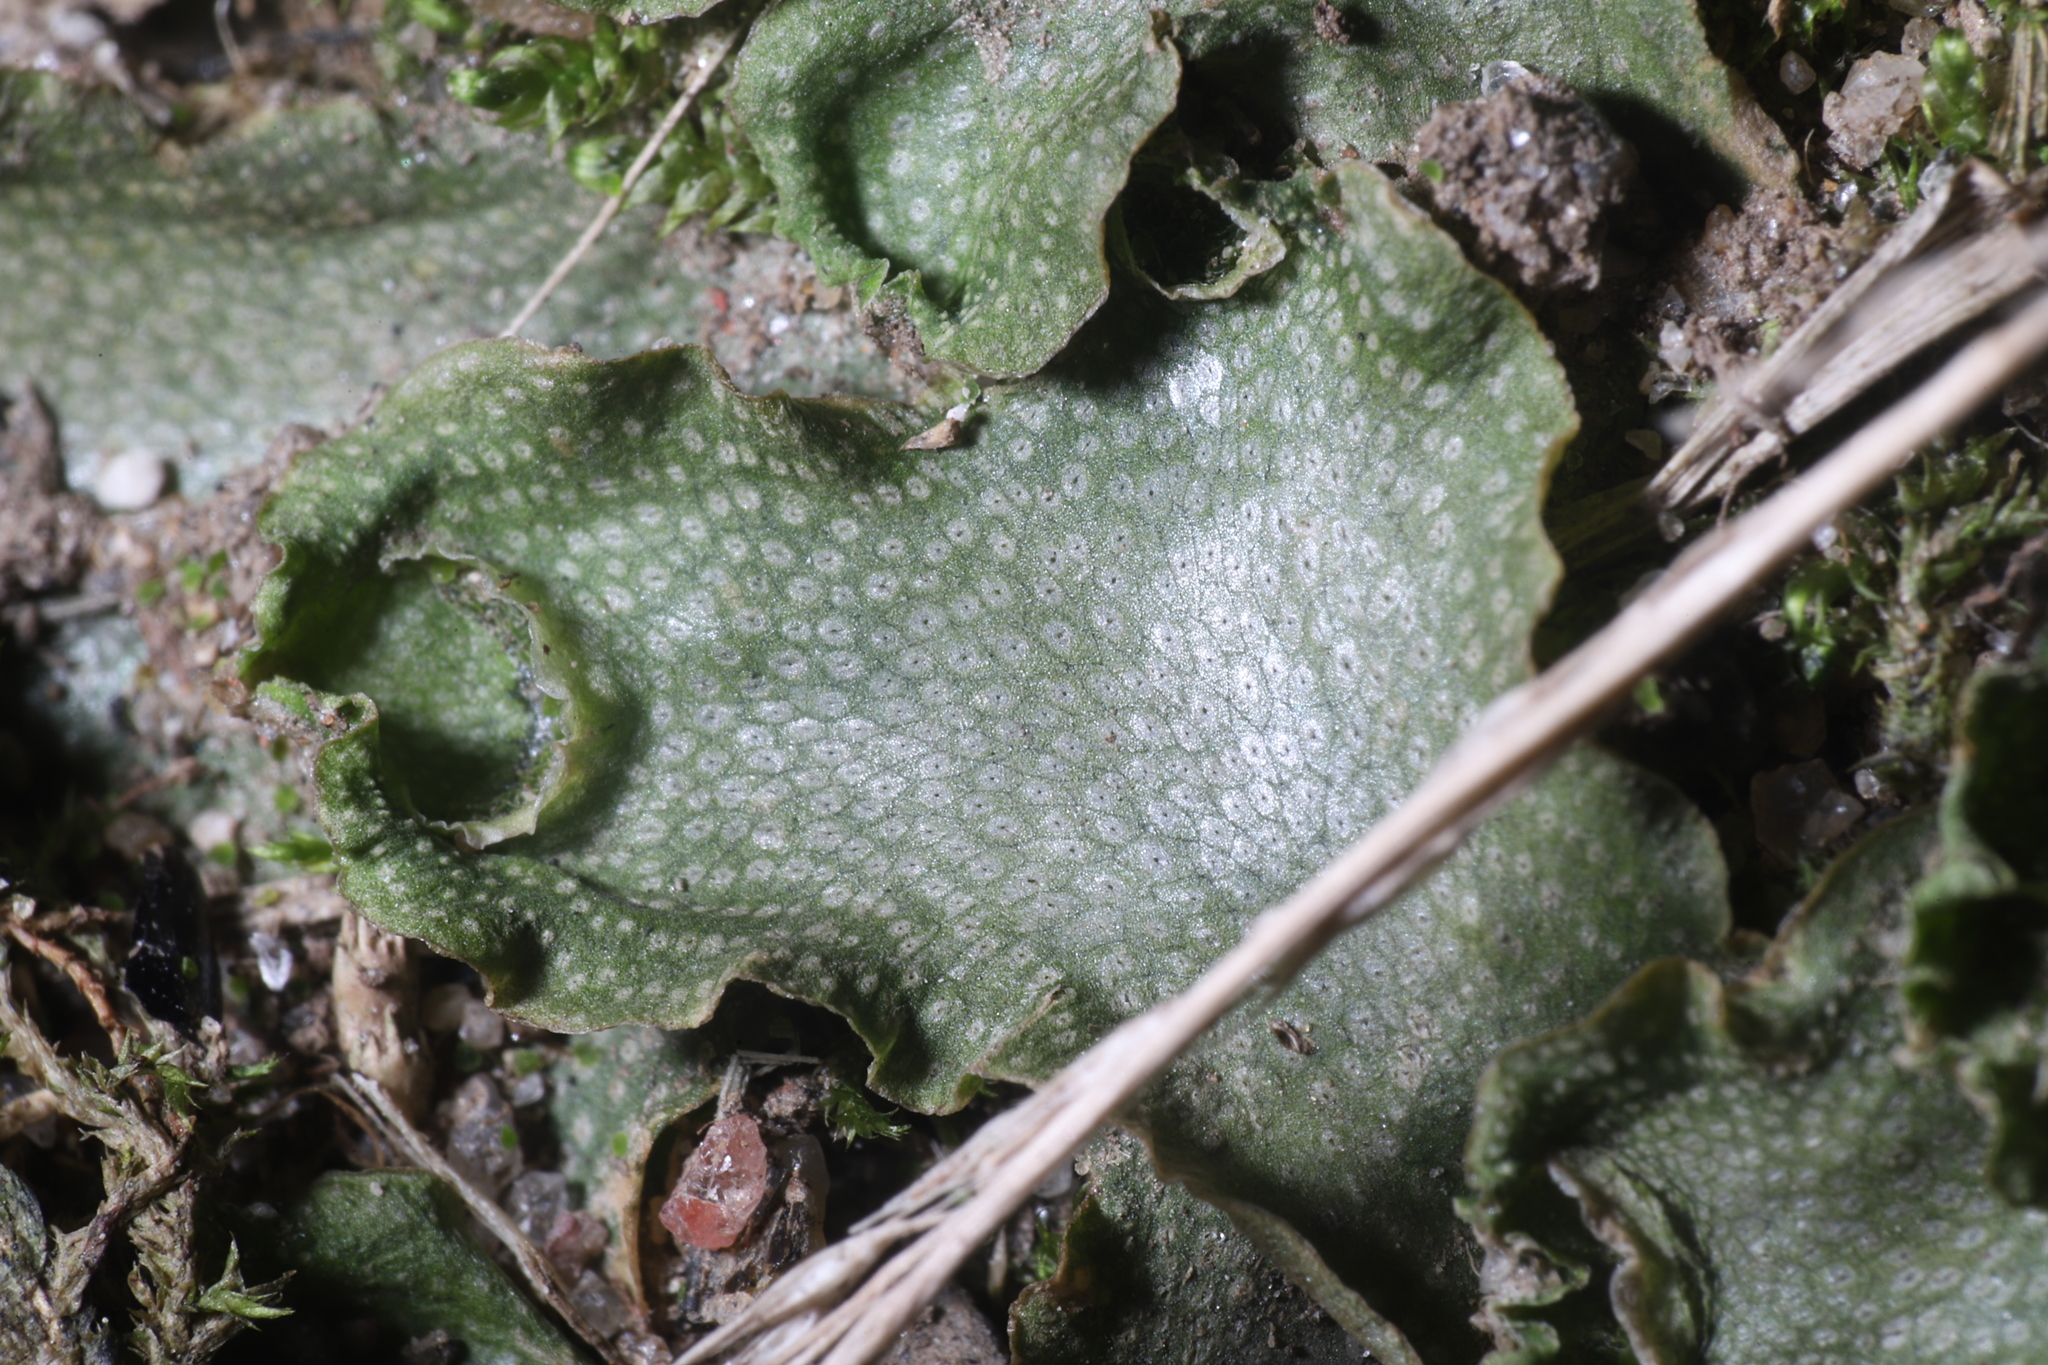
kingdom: Plantae
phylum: Marchantiophyta
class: Marchantiopsida
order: Lunulariales
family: Lunulariaceae
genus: Lunularia
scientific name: Lunularia cruciata
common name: Crescent-cup liverwort
